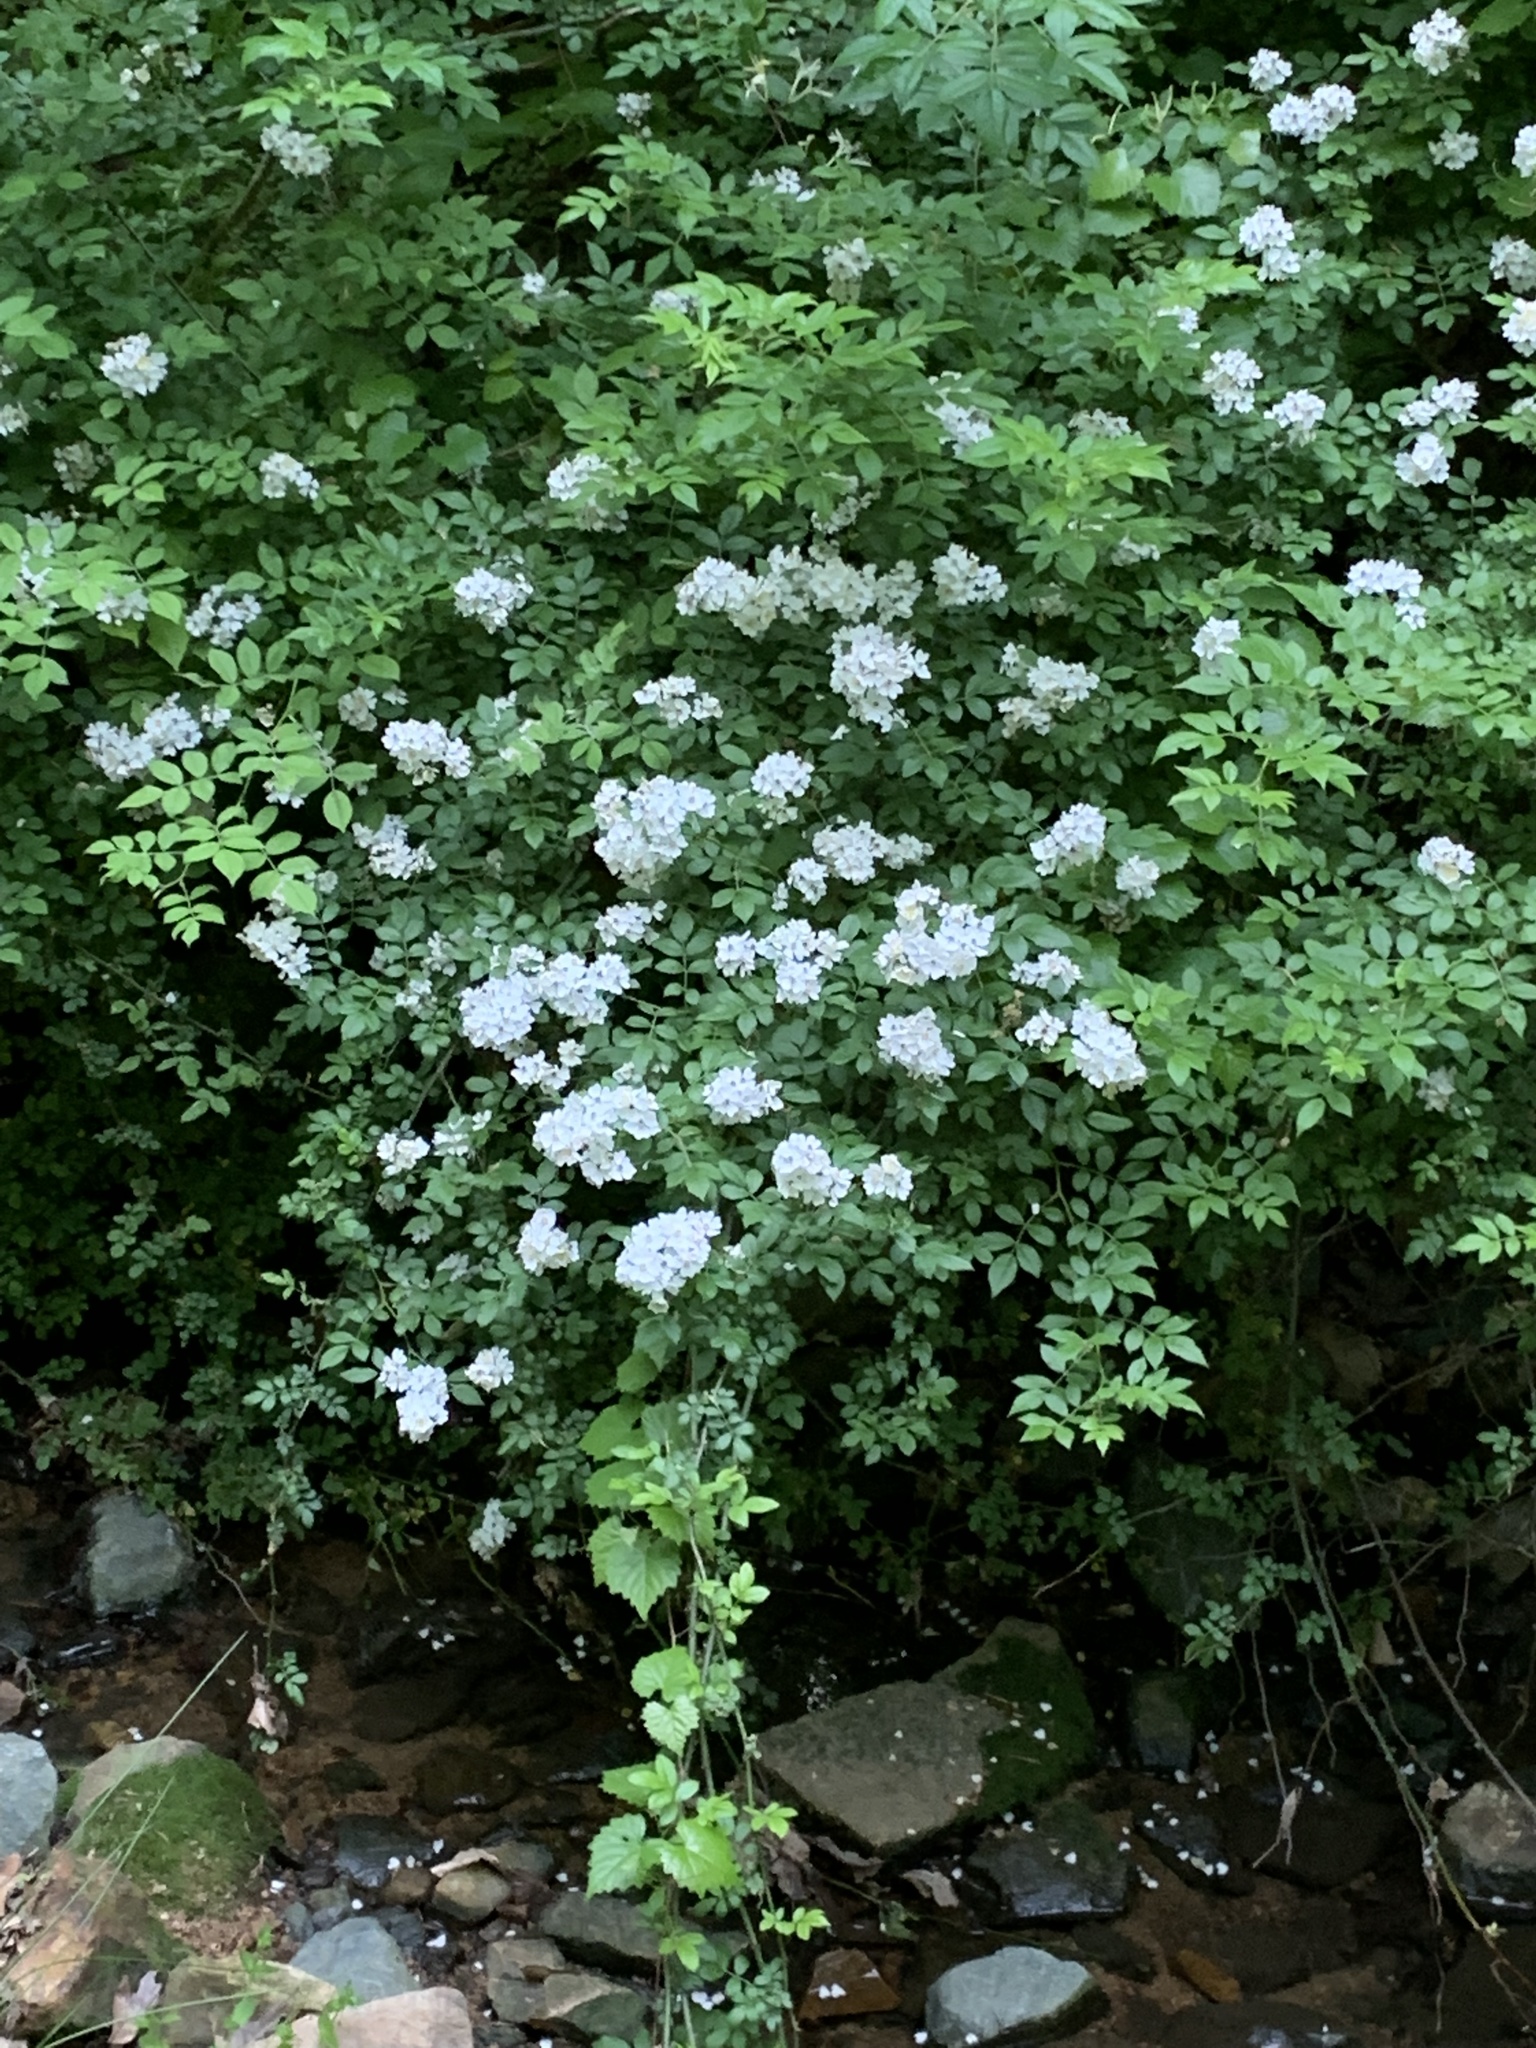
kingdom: Plantae
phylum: Tracheophyta
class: Magnoliopsida
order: Rosales
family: Rosaceae
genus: Rosa
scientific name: Rosa multiflora
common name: Multiflora rose
